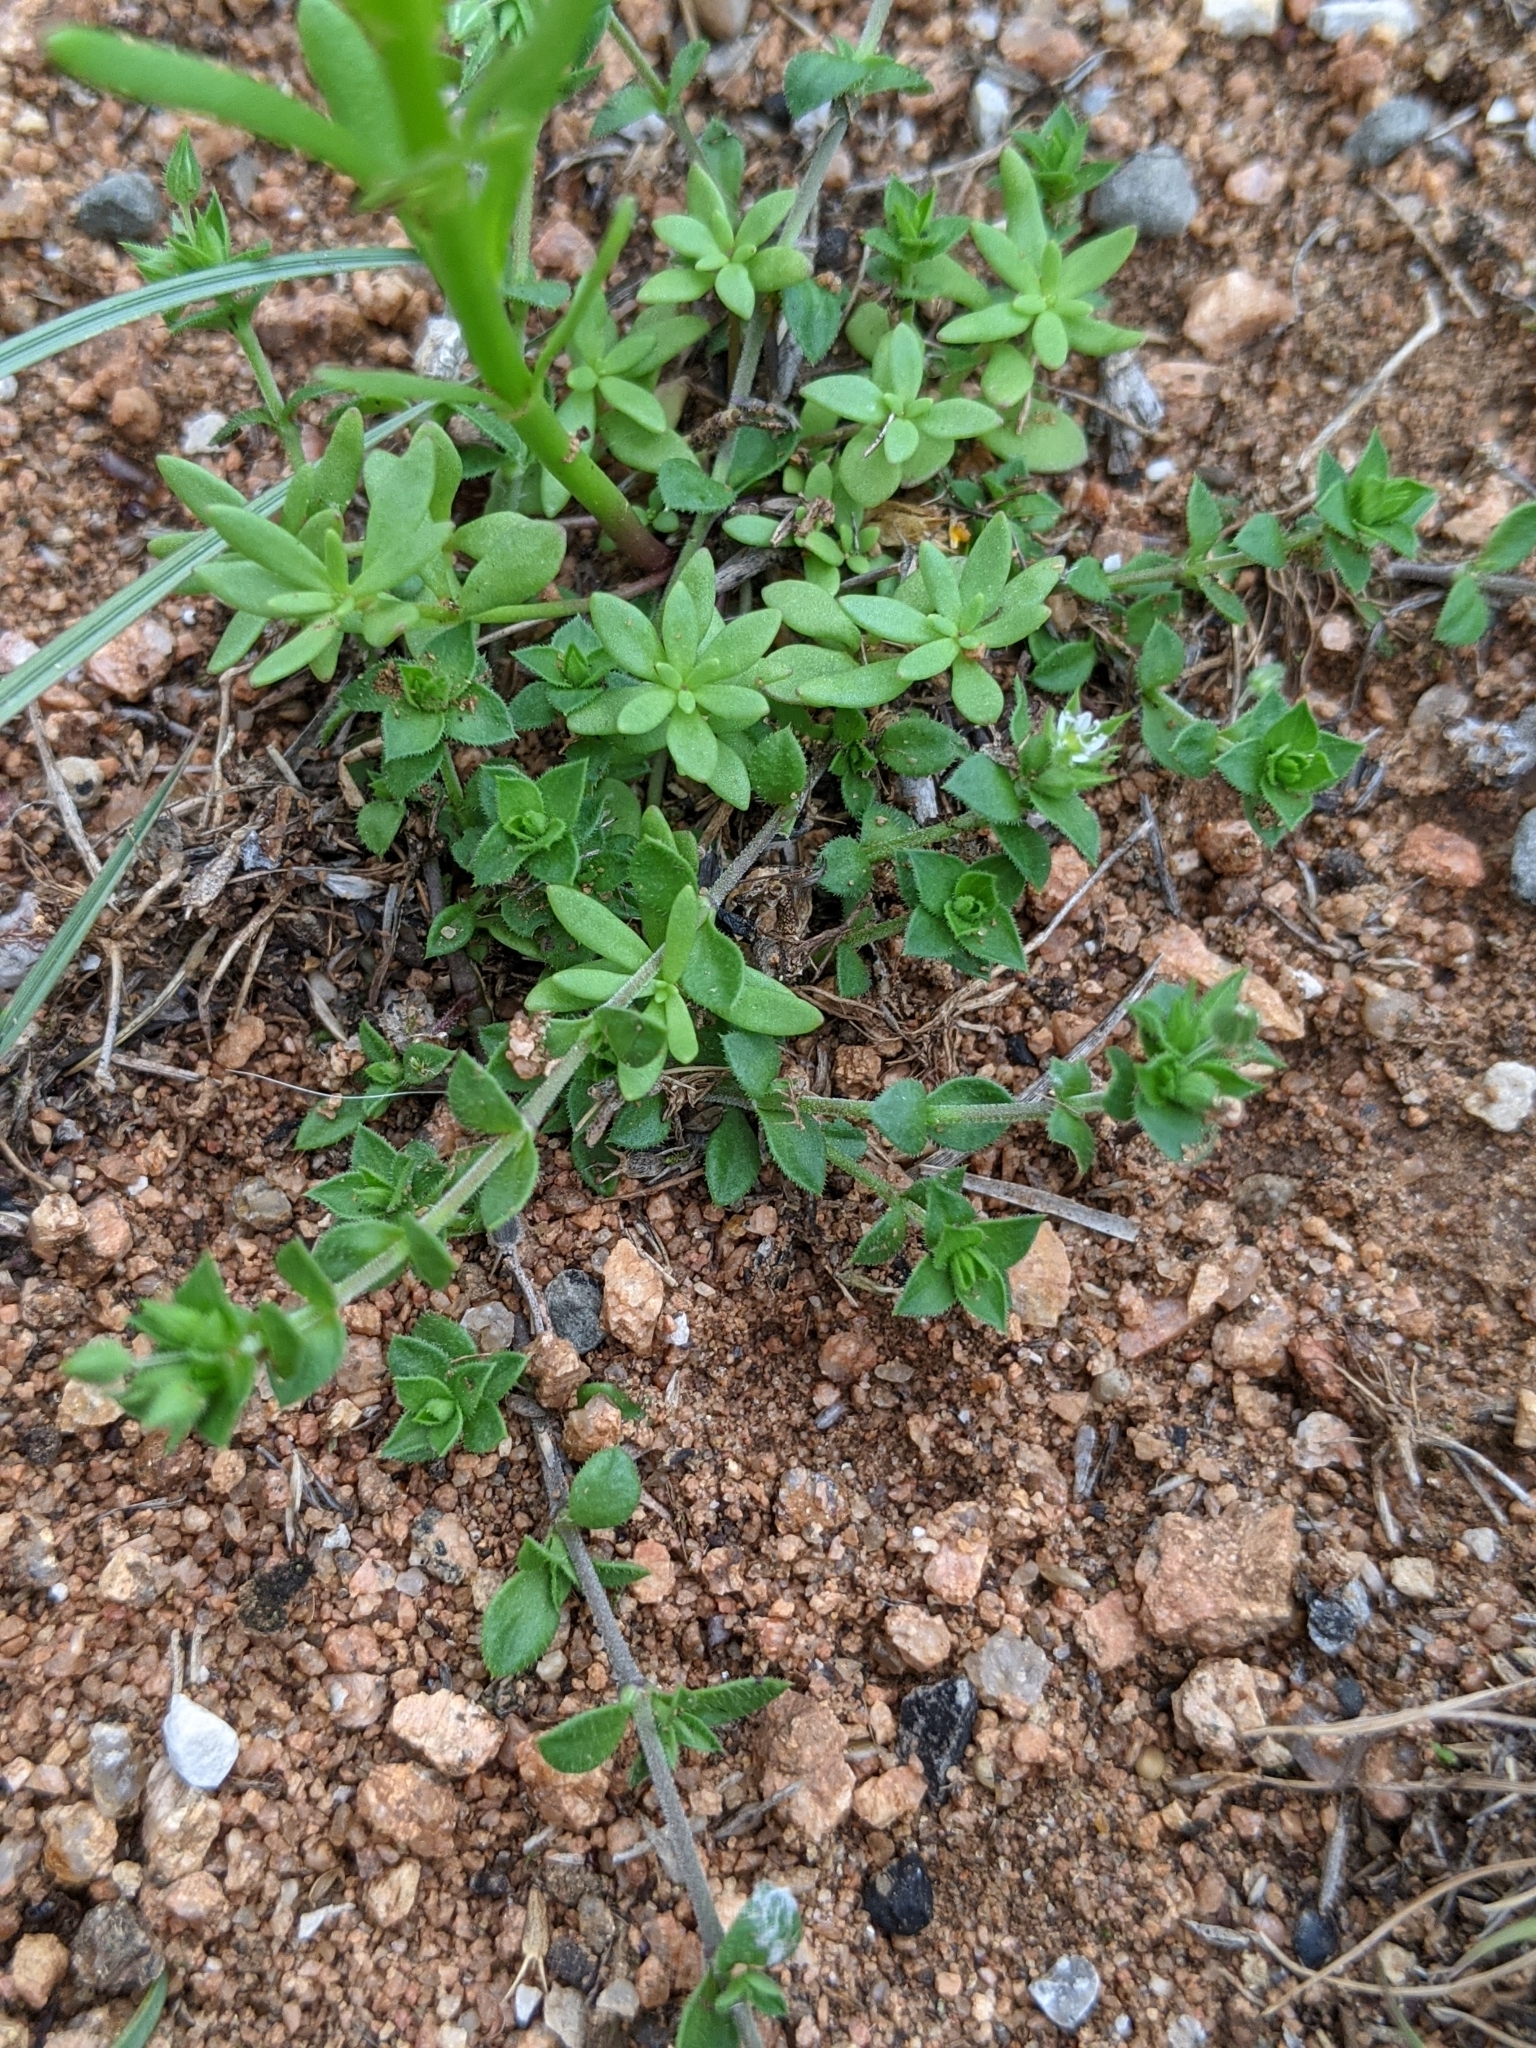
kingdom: Plantae
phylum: Tracheophyta
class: Magnoliopsida
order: Caryophyllales
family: Caryophyllaceae
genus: Arenaria
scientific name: Arenaria serpyllifolia
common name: Thyme-leaved sandwort
